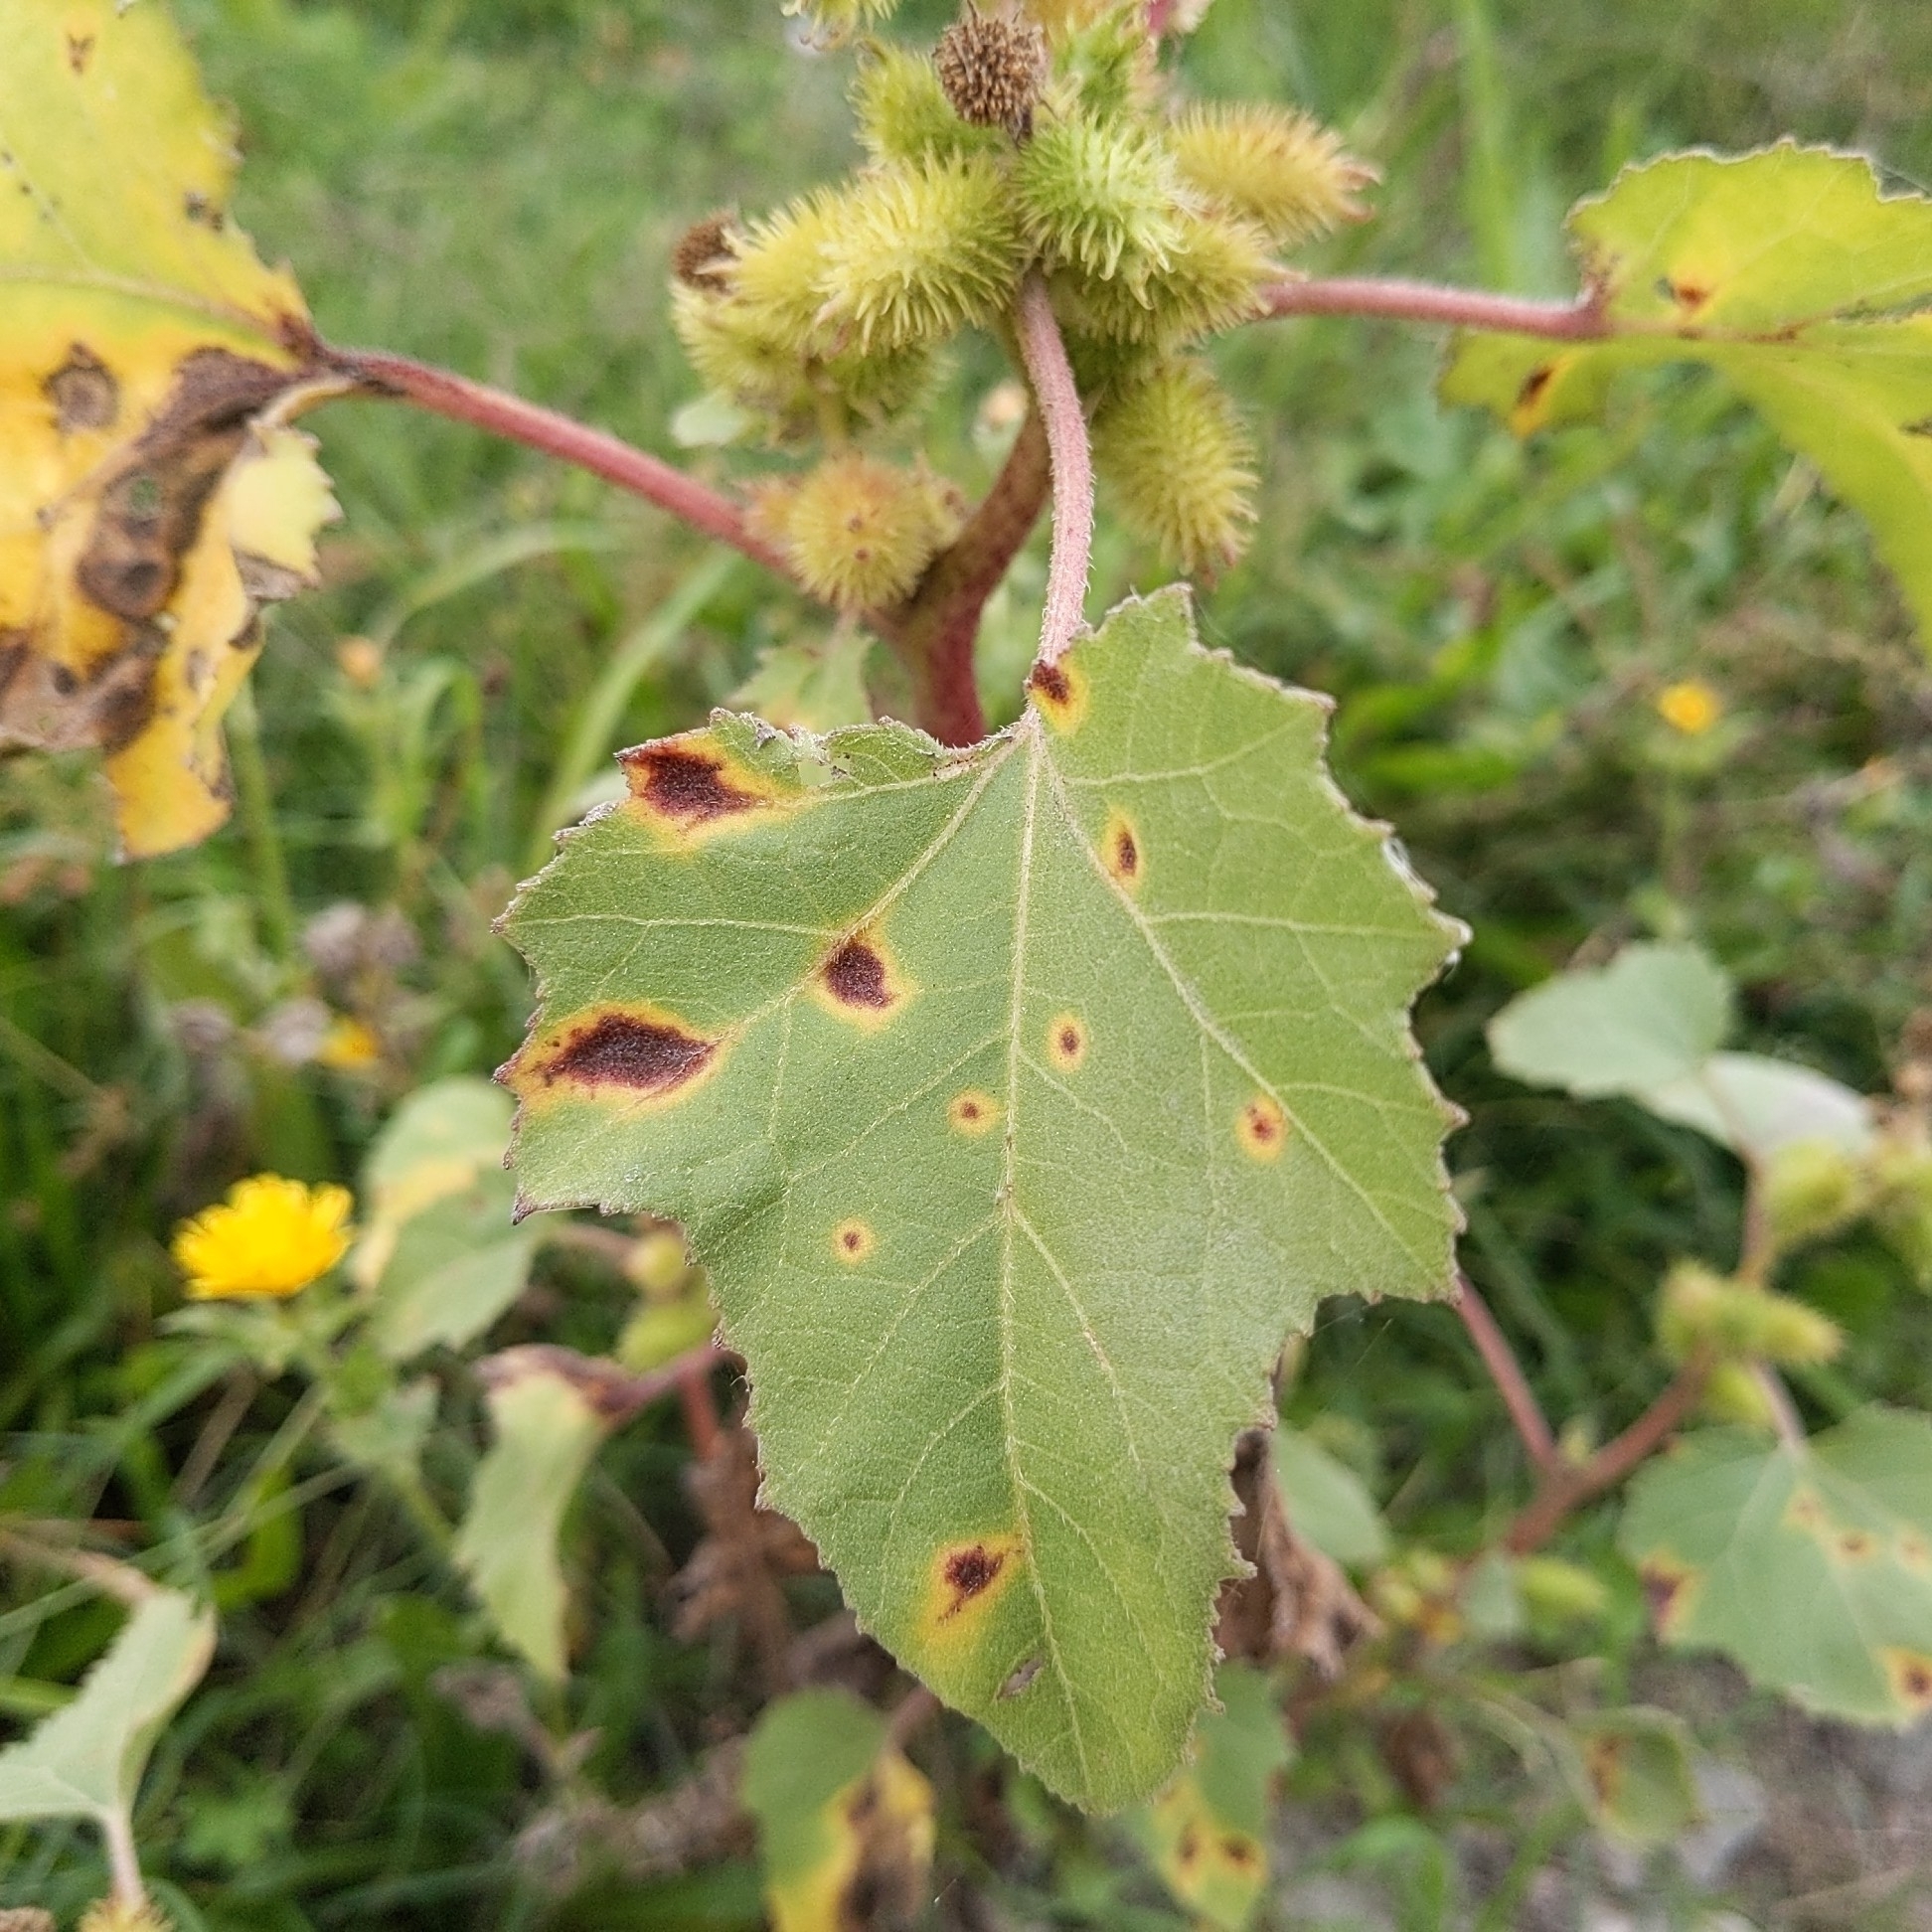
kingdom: Plantae
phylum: Tracheophyta
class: Magnoliopsida
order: Asterales
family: Asteraceae
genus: Xanthium
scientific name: Xanthium strumarium
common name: Rough cocklebur
